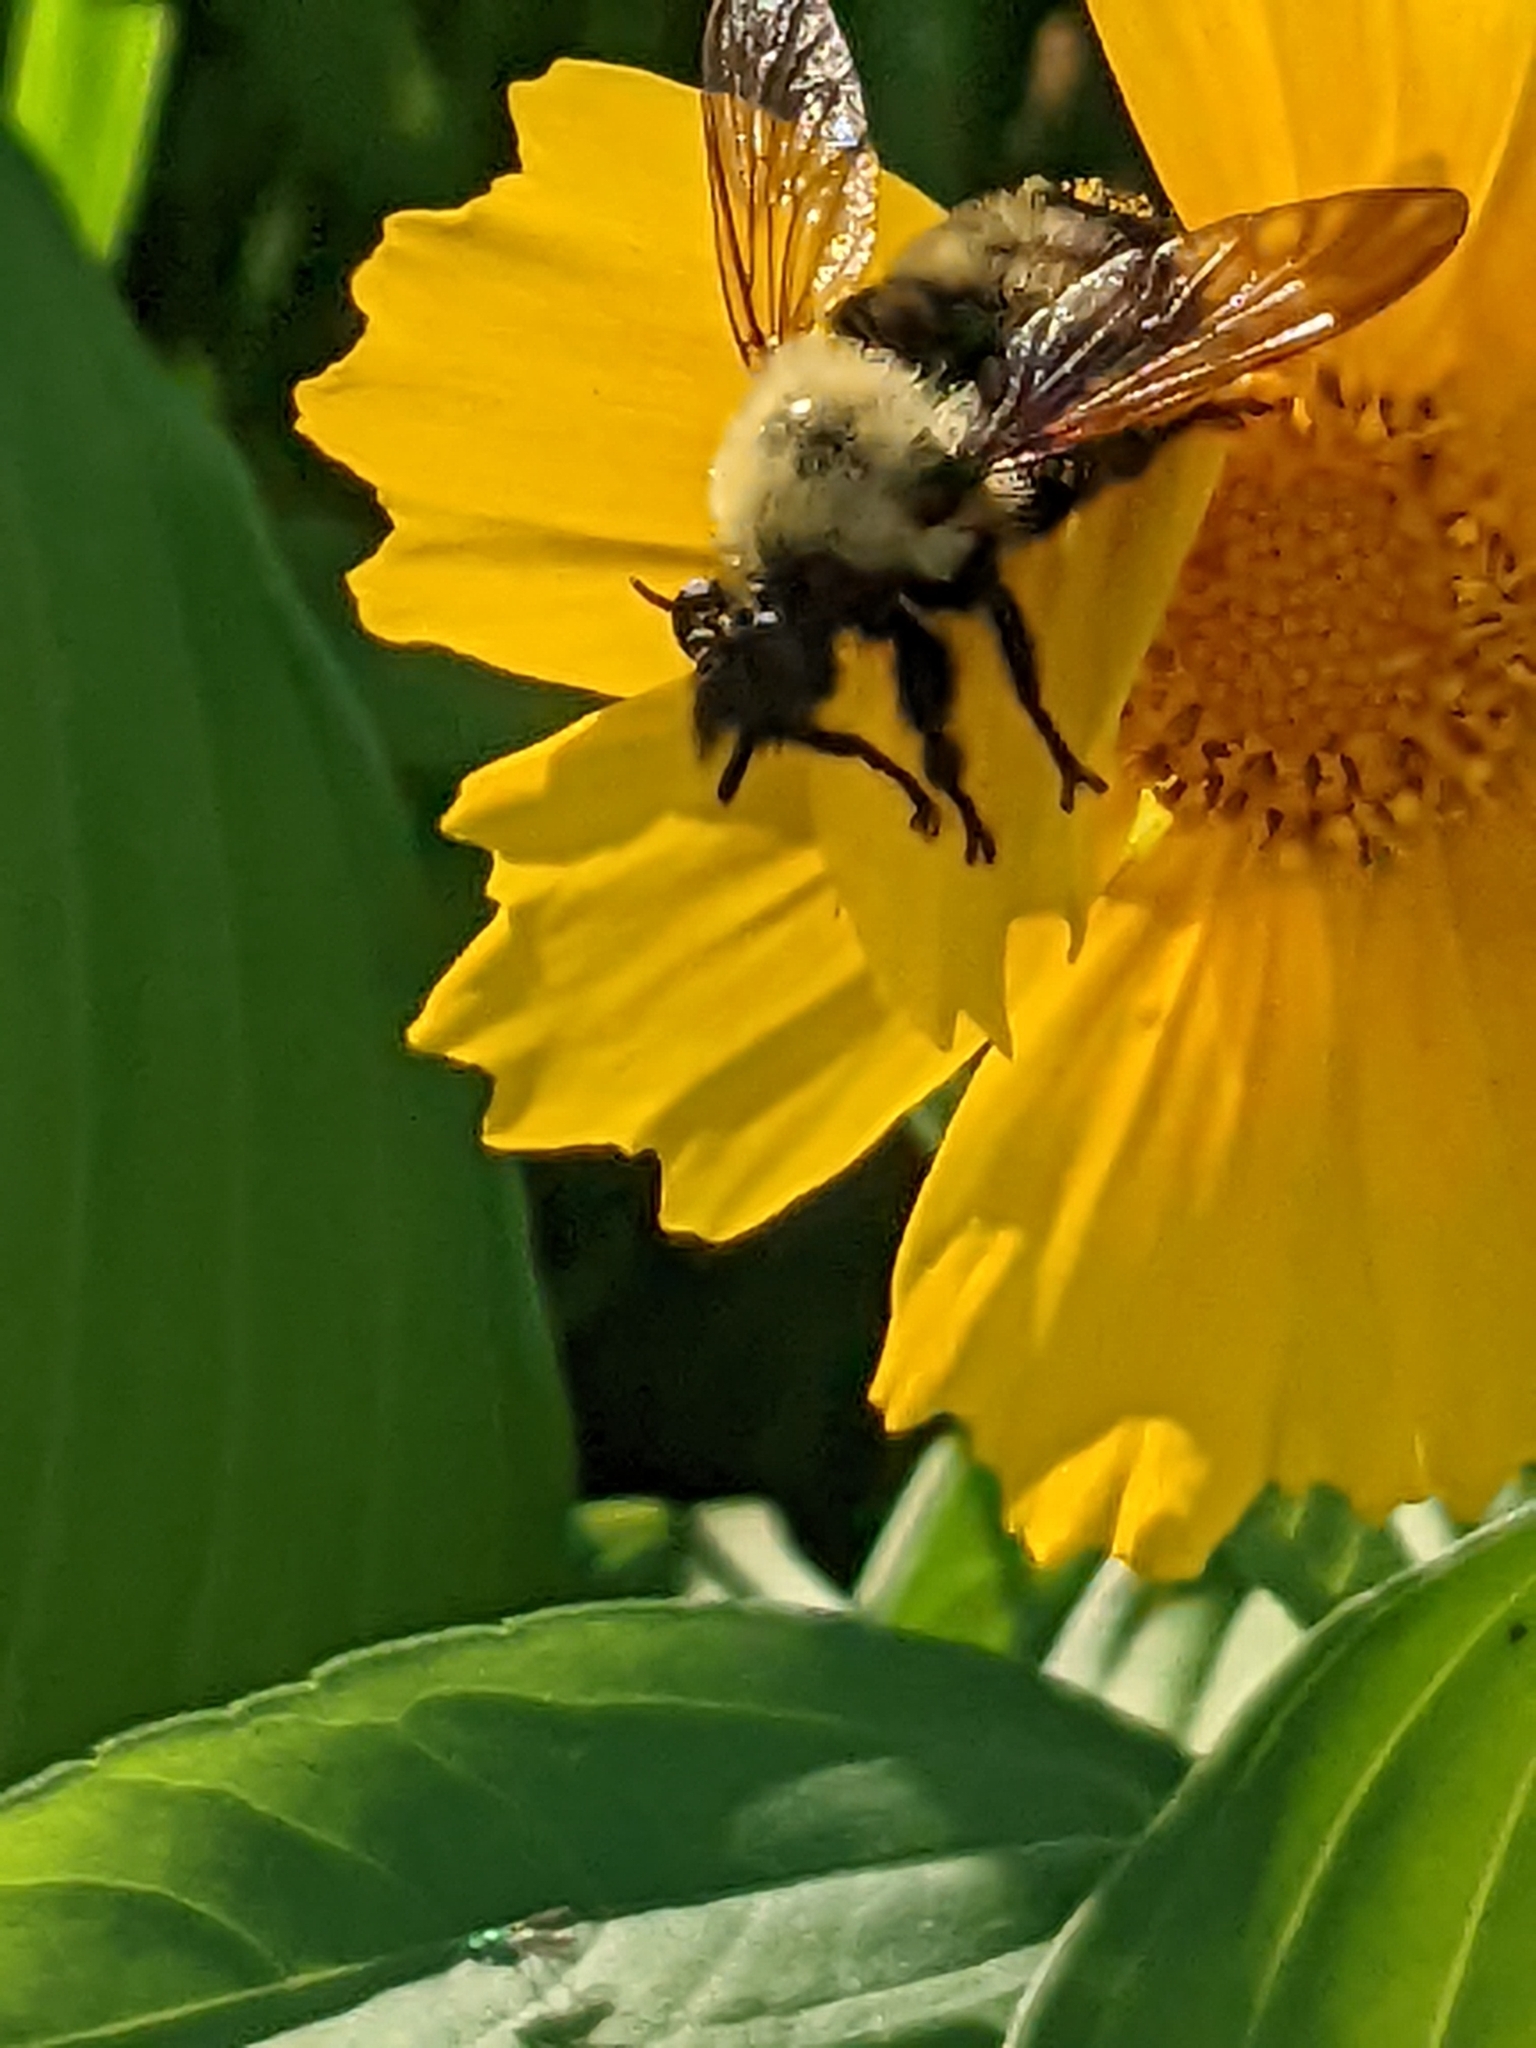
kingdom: Animalia
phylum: Arthropoda
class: Insecta
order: Diptera
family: Asilidae
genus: Laphria
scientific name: Laphria thoracica
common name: Bumble bee mimic robber fly
